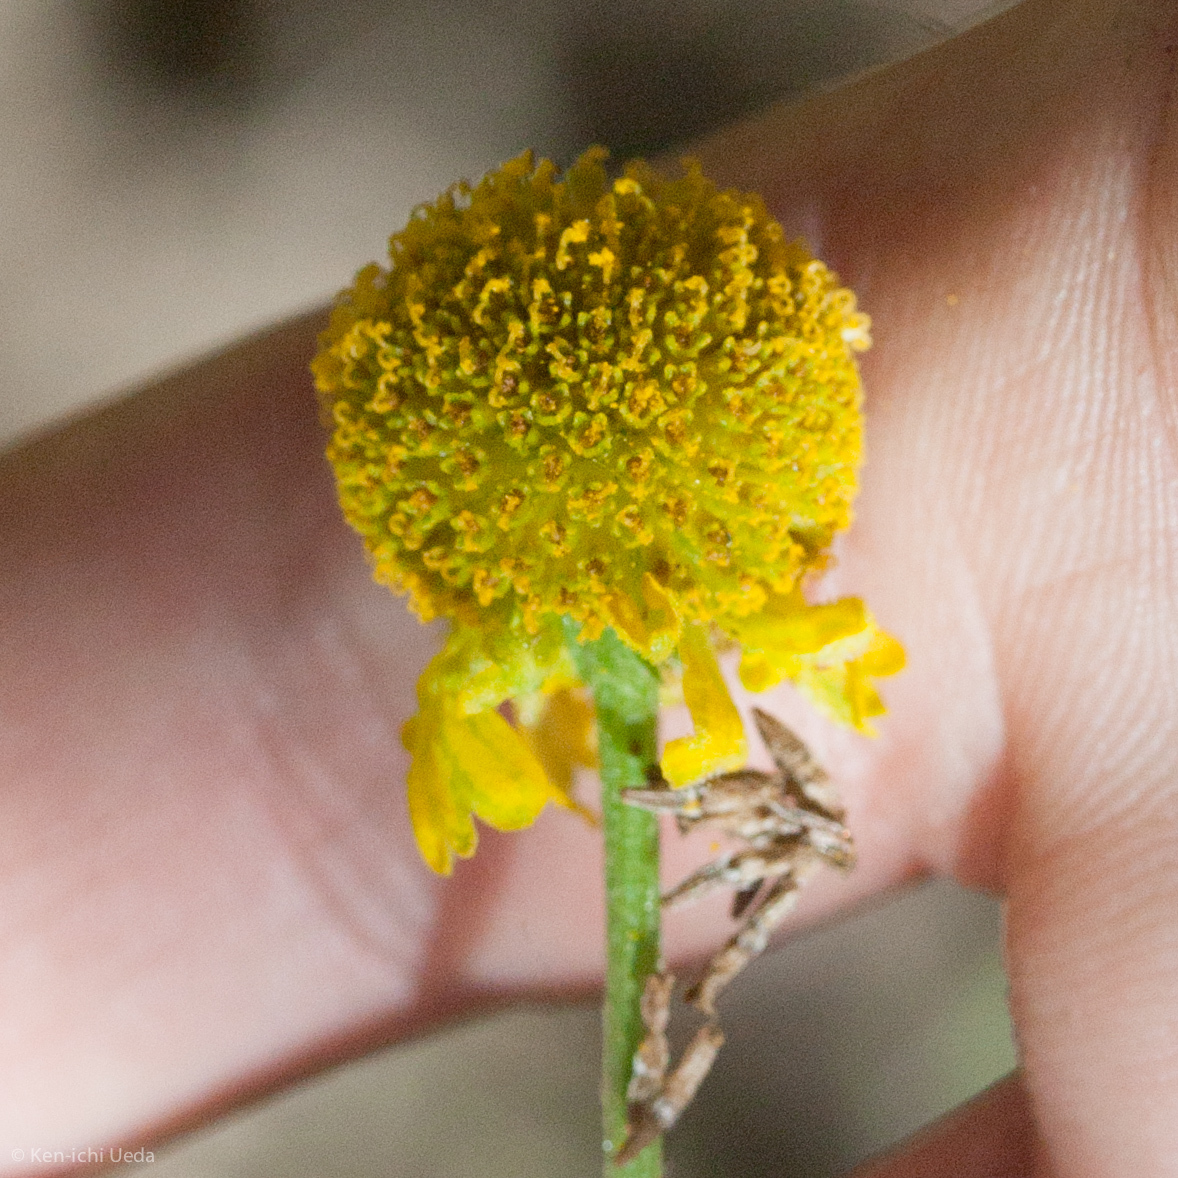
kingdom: Plantae
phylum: Tracheophyta
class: Magnoliopsida
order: Asterales
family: Asteraceae
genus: Helenium
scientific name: Helenium puberulum
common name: Sneezewort
